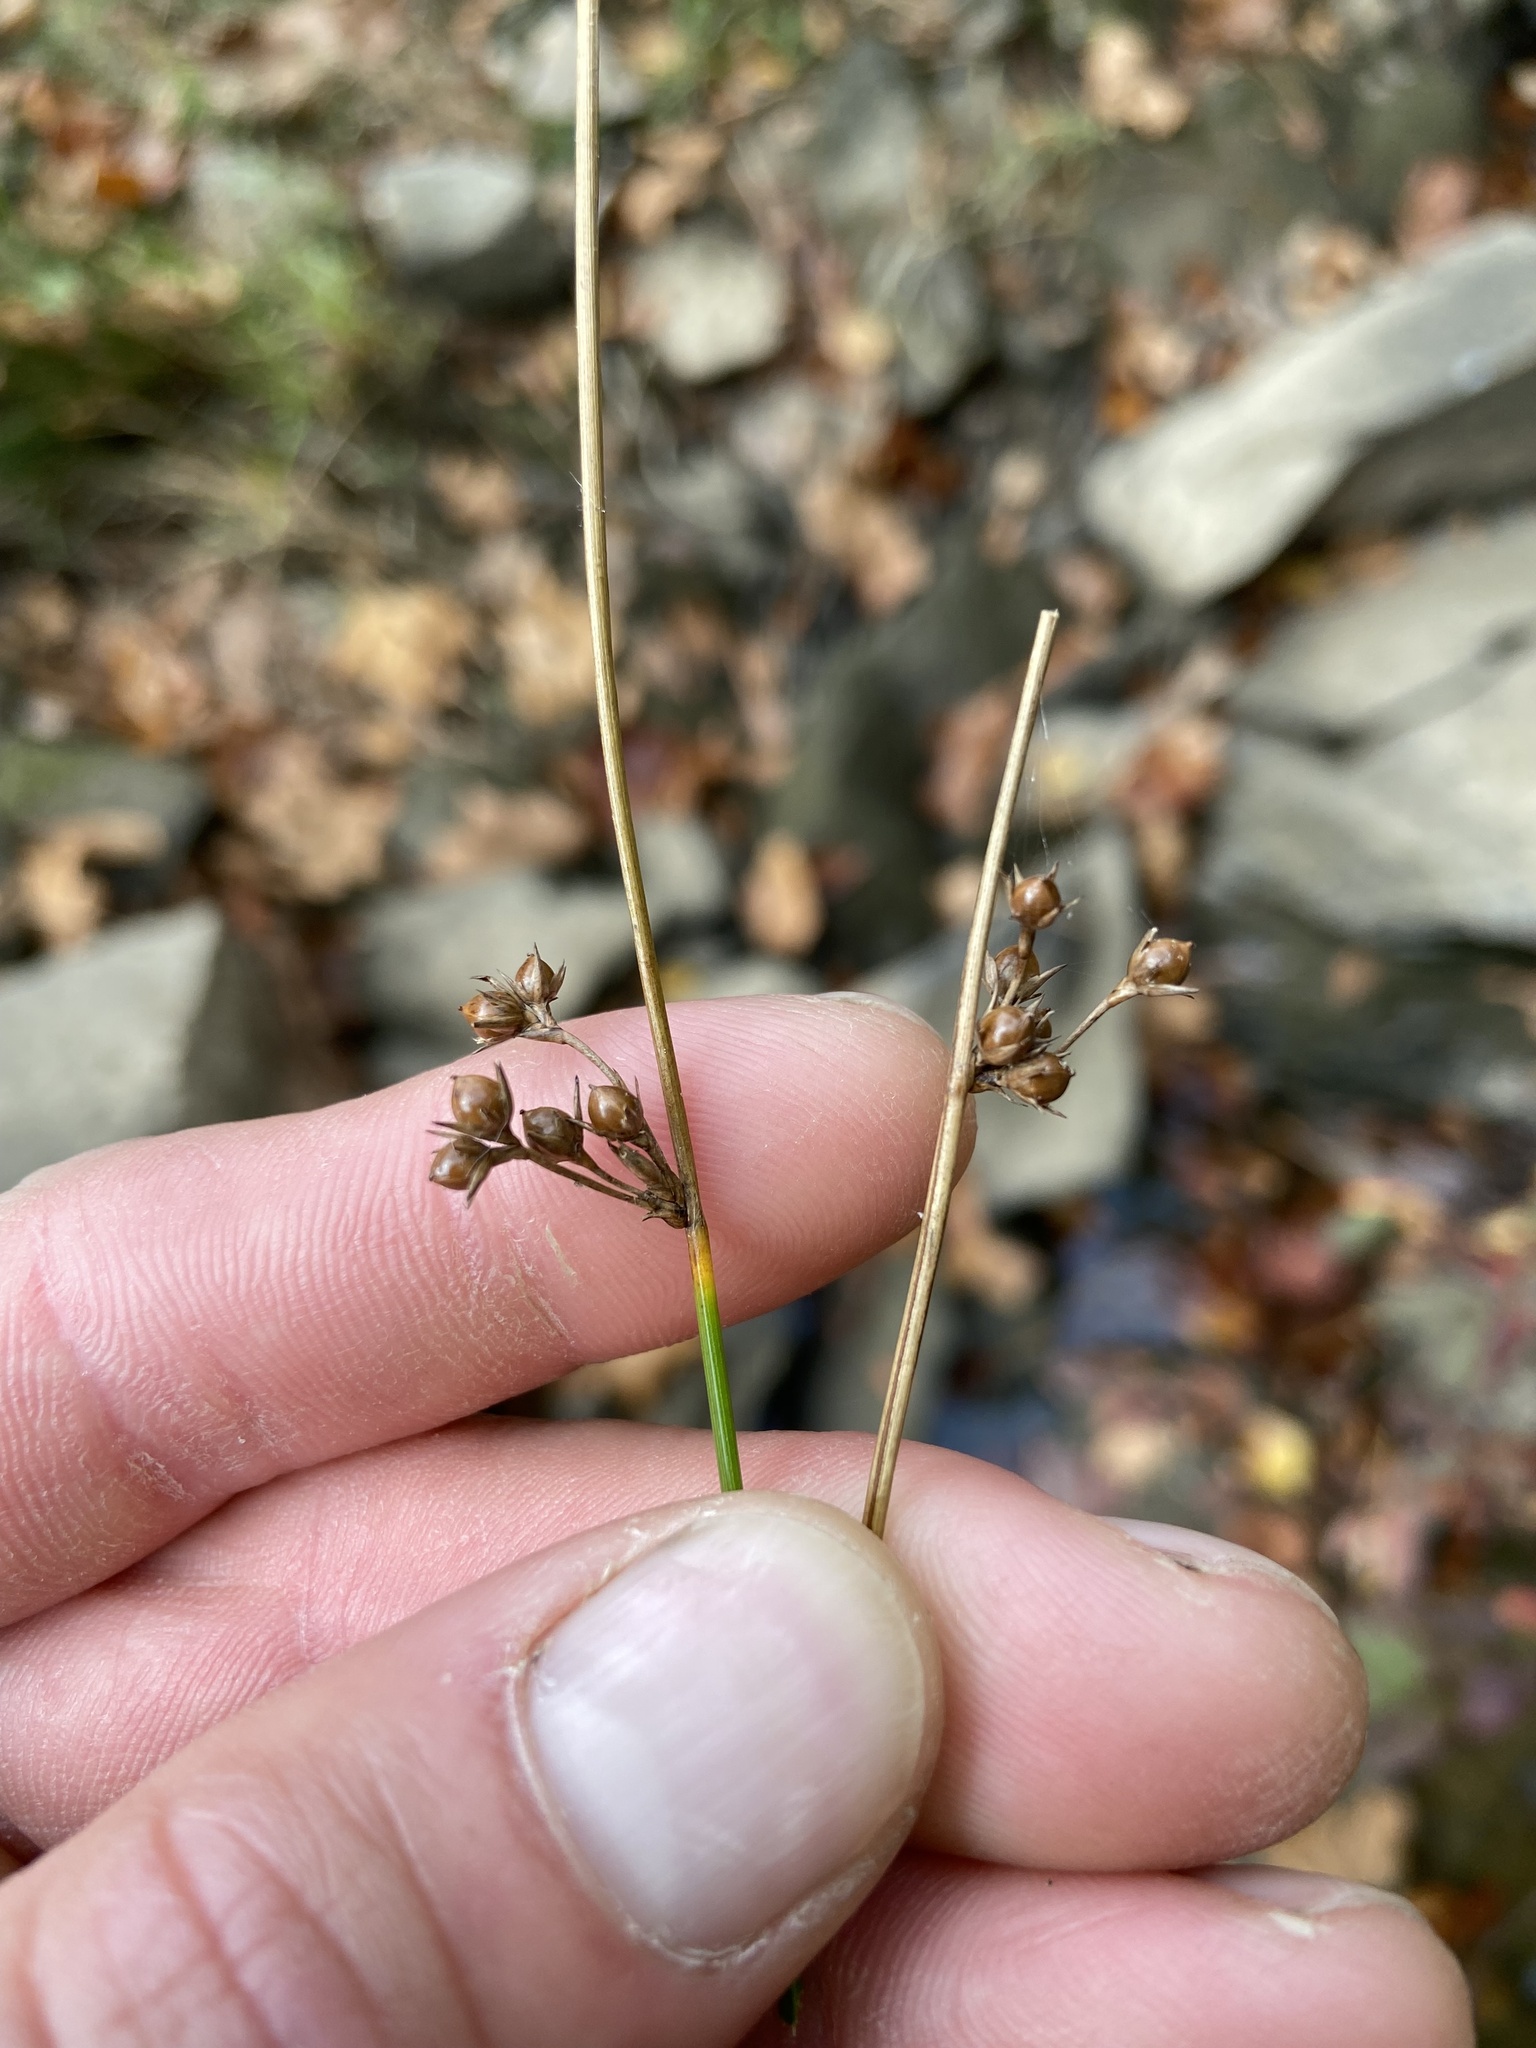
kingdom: Plantae
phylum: Tracheophyta
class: Liliopsida
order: Poales
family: Juncaceae
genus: Juncus
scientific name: Juncus coriaceus
